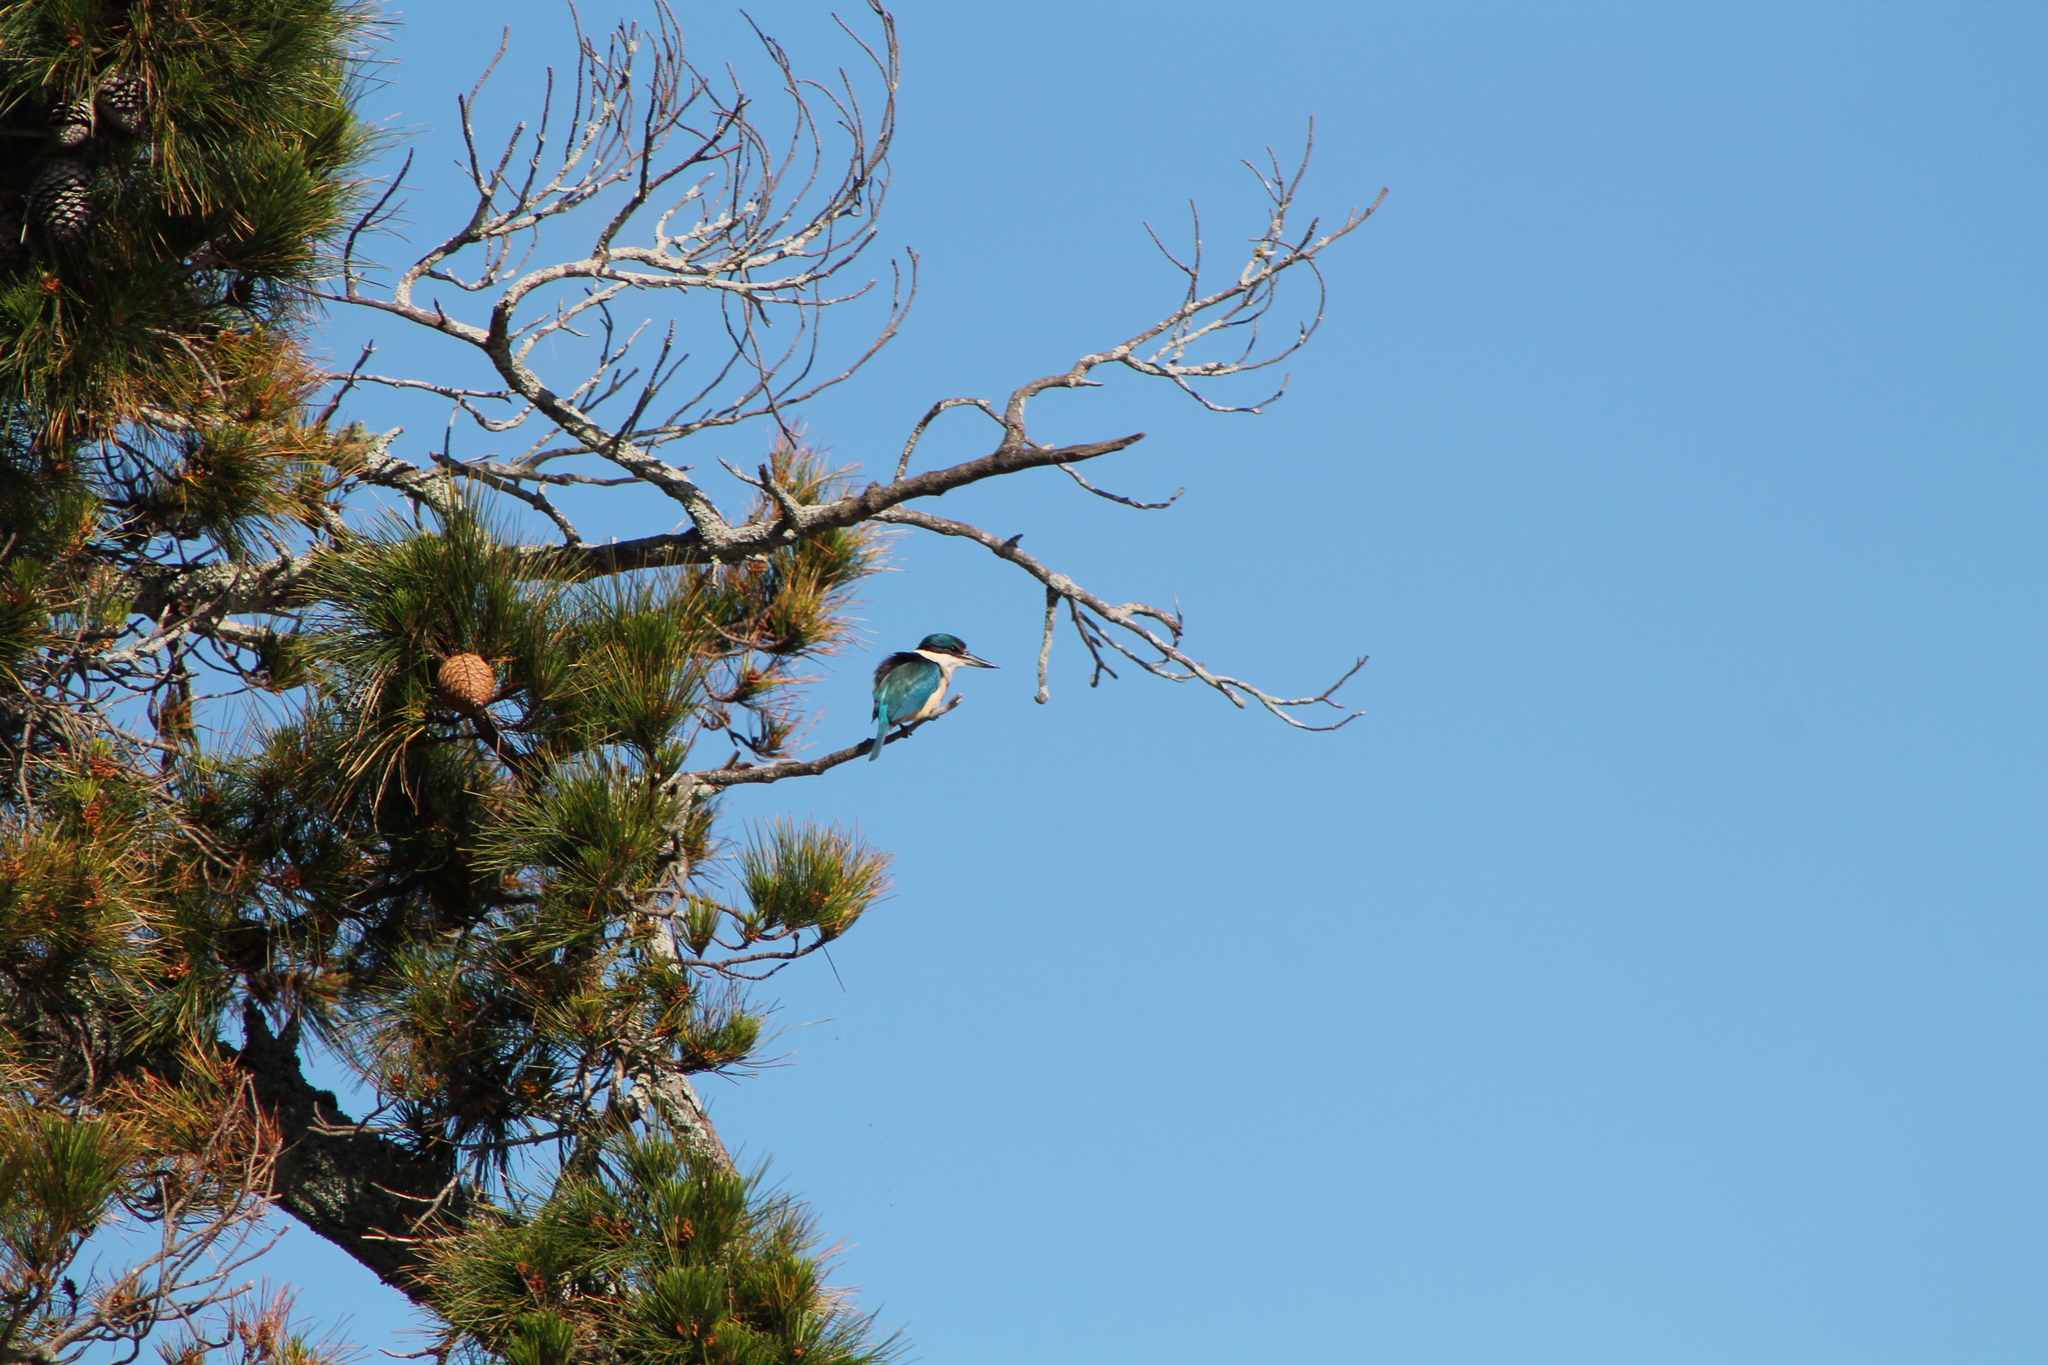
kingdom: Animalia
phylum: Chordata
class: Aves
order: Coraciiformes
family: Alcedinidae
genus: Todiramphus
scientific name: Todiramphus sanctus
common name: Sacred kingfisher
